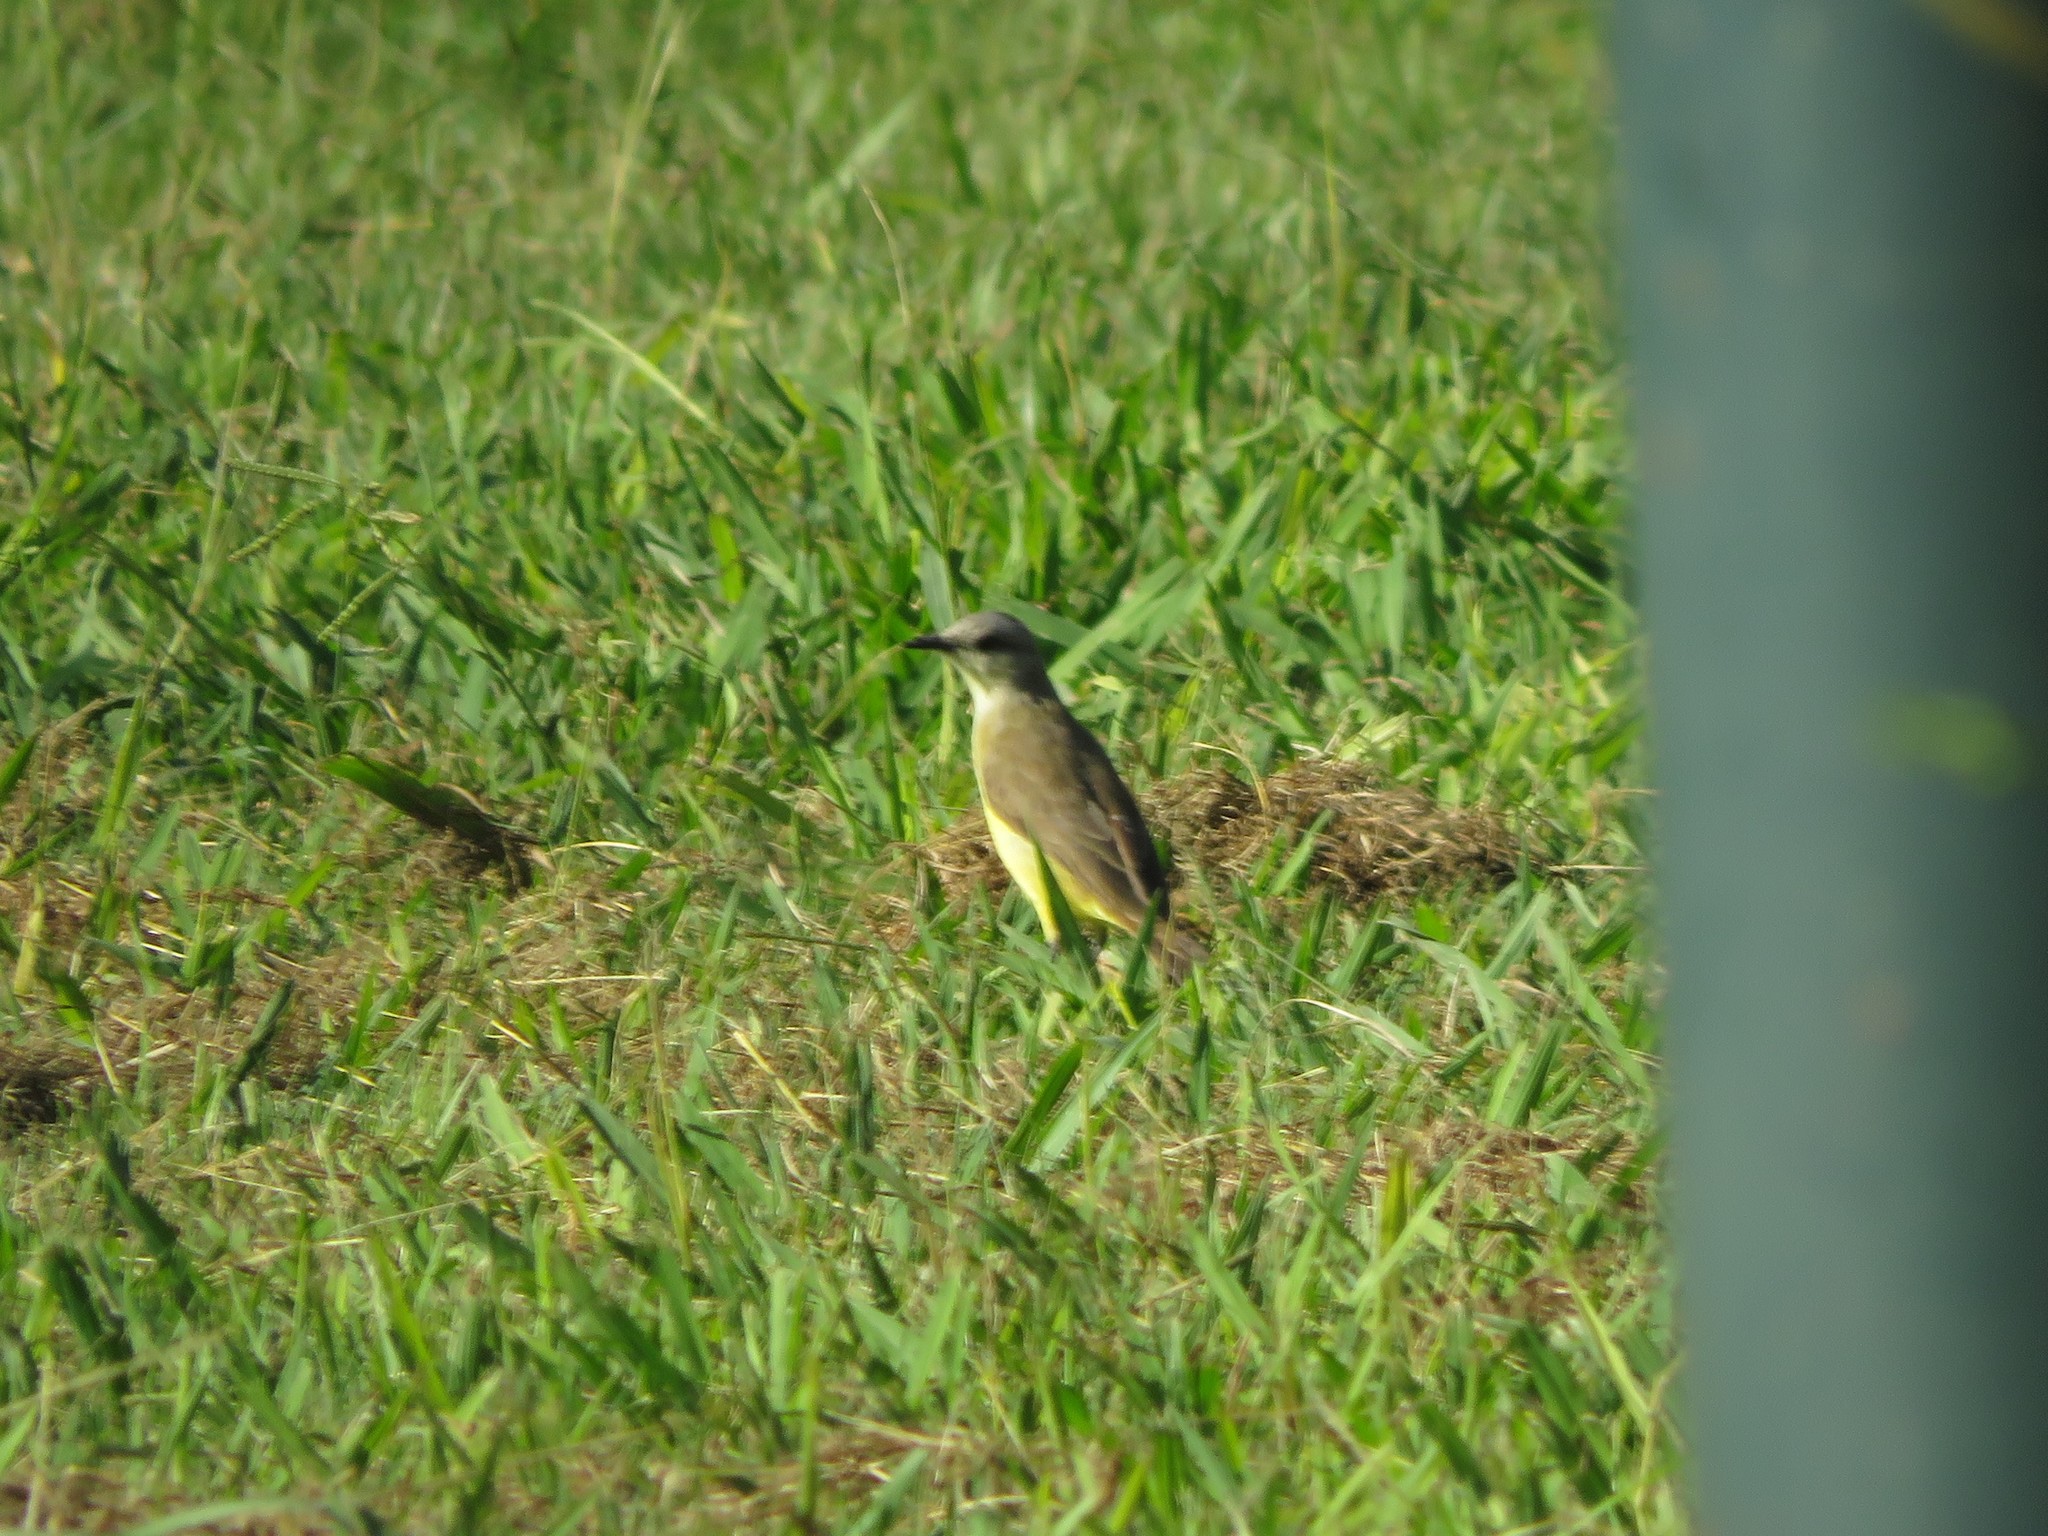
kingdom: Animalia
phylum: Chordata
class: Aves
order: Passeriformes
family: Tyrannidae
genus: Machetornis
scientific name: Machetornis rixosa
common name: Cattle tyrant
